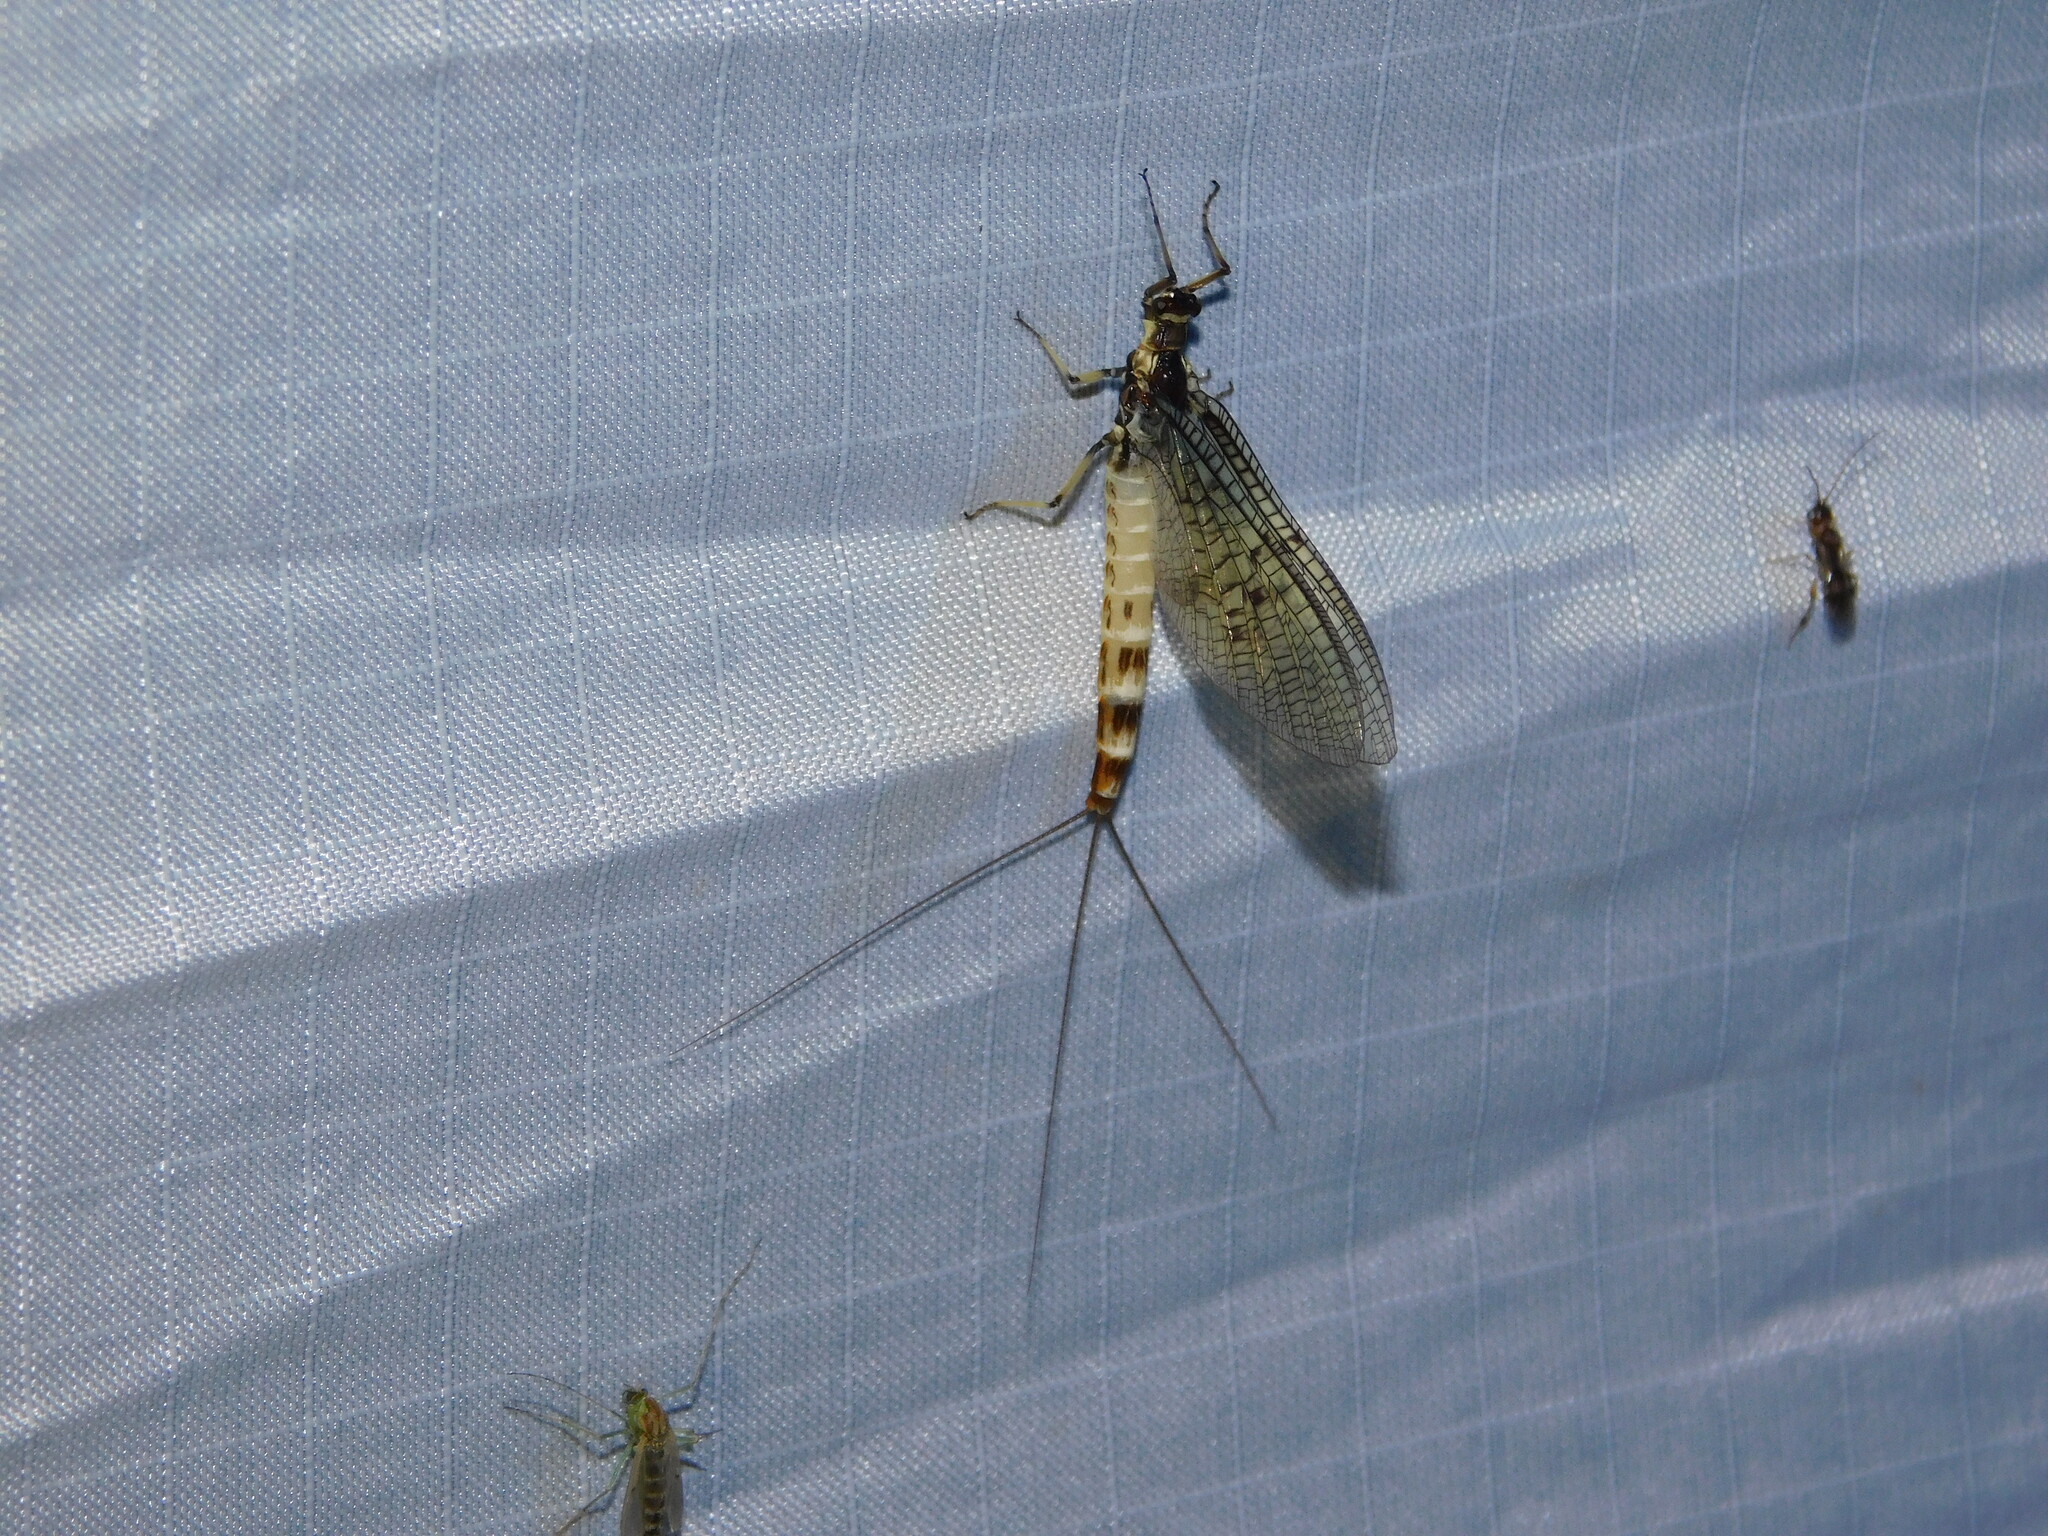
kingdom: Animalia
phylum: Arthropoda
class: Insecta
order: Ephemeroptera
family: Ephemeridae
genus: Ephemera
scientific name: Ephemera danica
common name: Green dun
